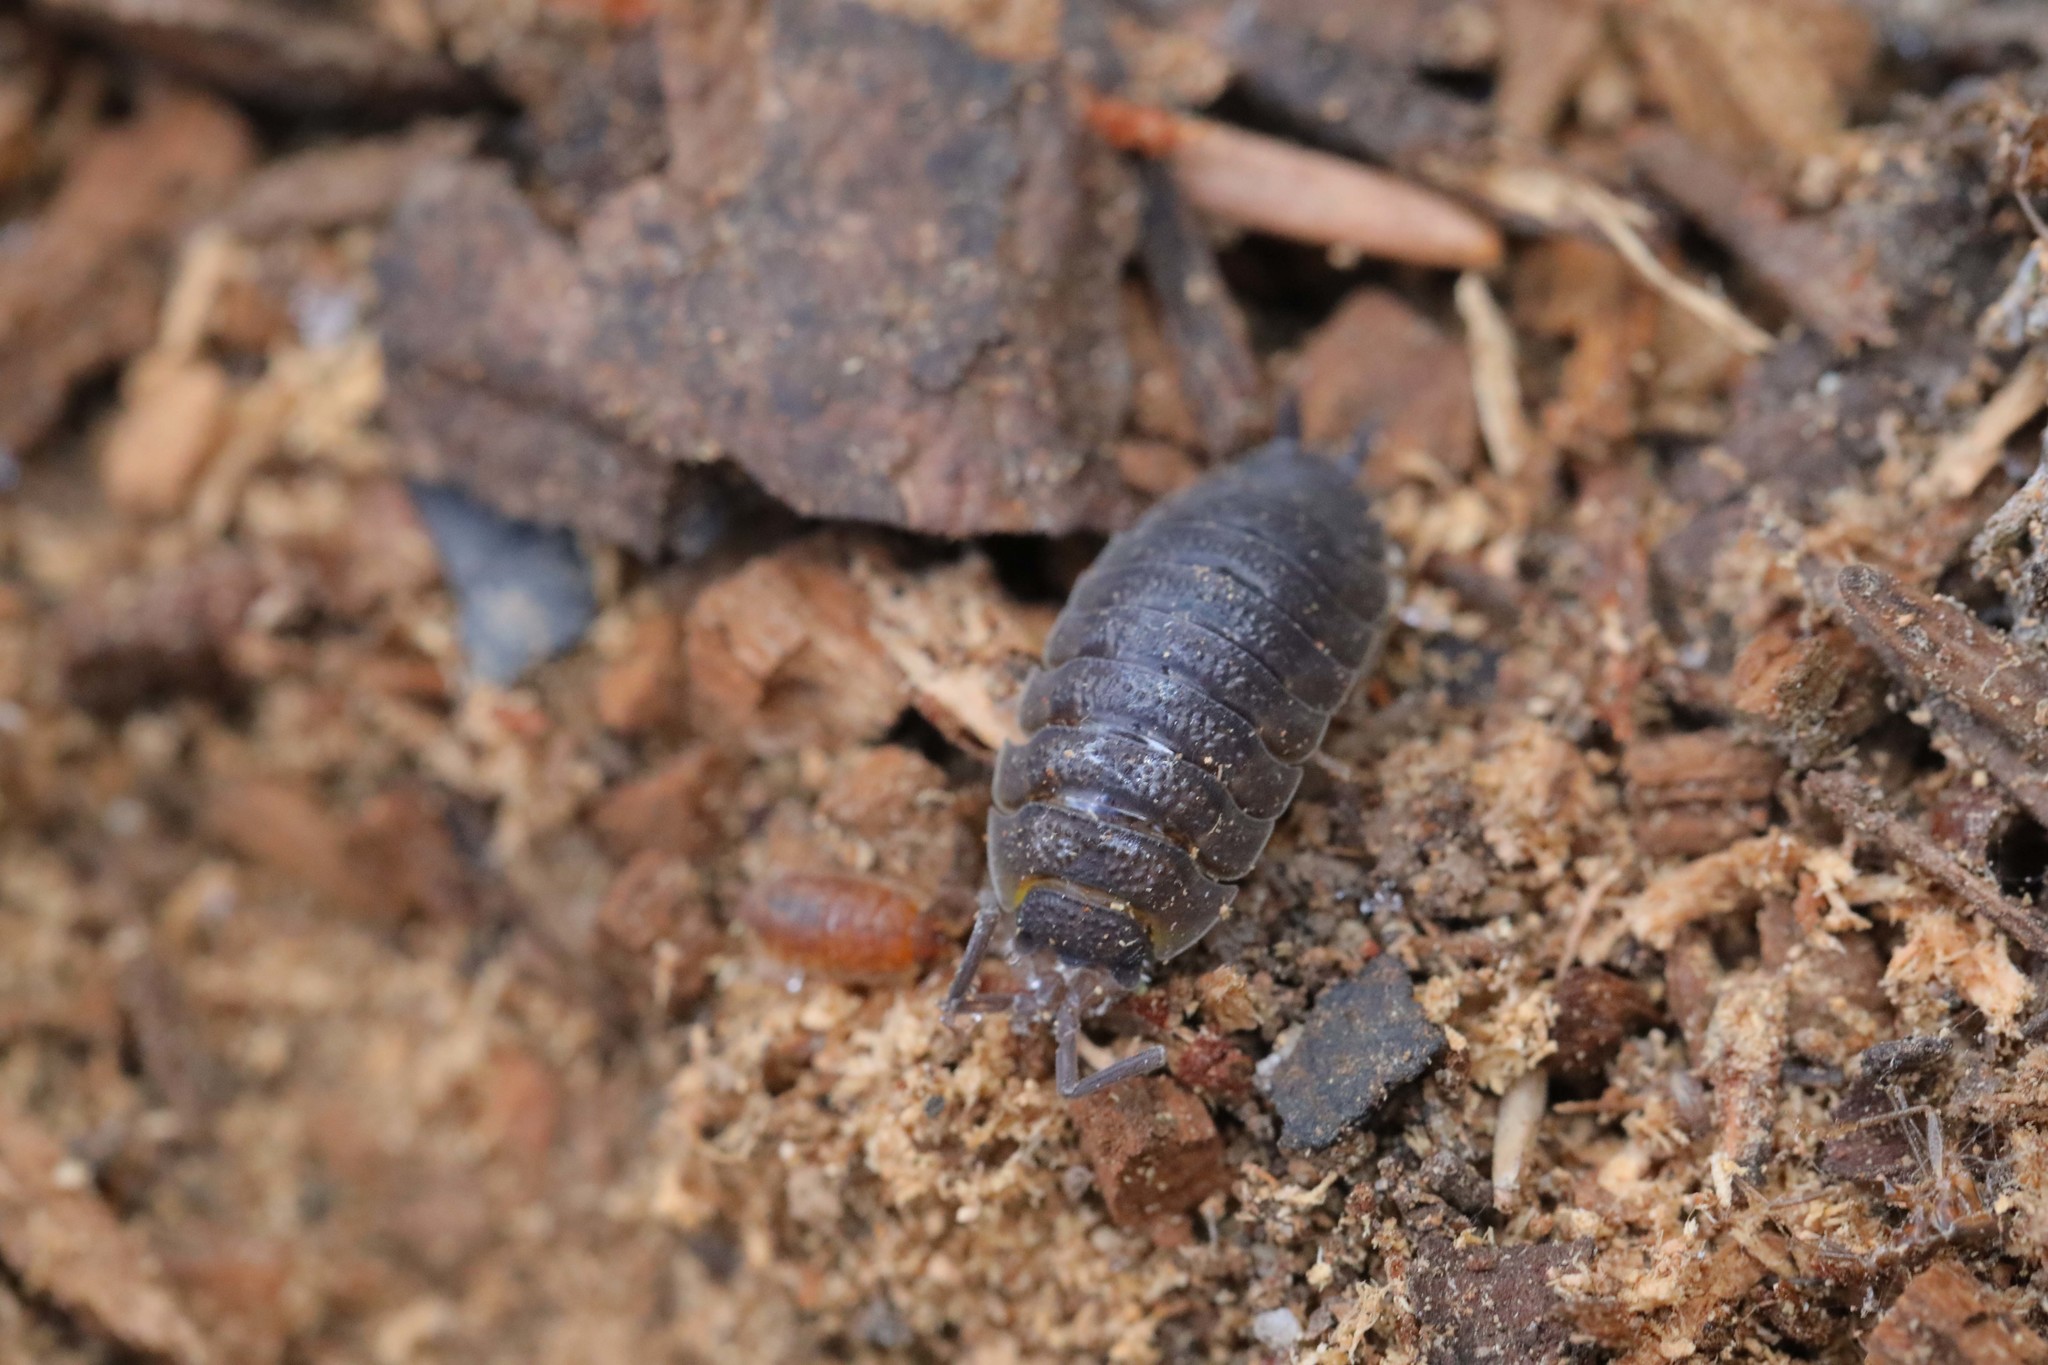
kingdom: Animalia
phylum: Arthropoda
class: Malacostraca
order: Isopoda
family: Porcellionidae
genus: Porcellio
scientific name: Porcellio scaber
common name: Common rough woodlouse
